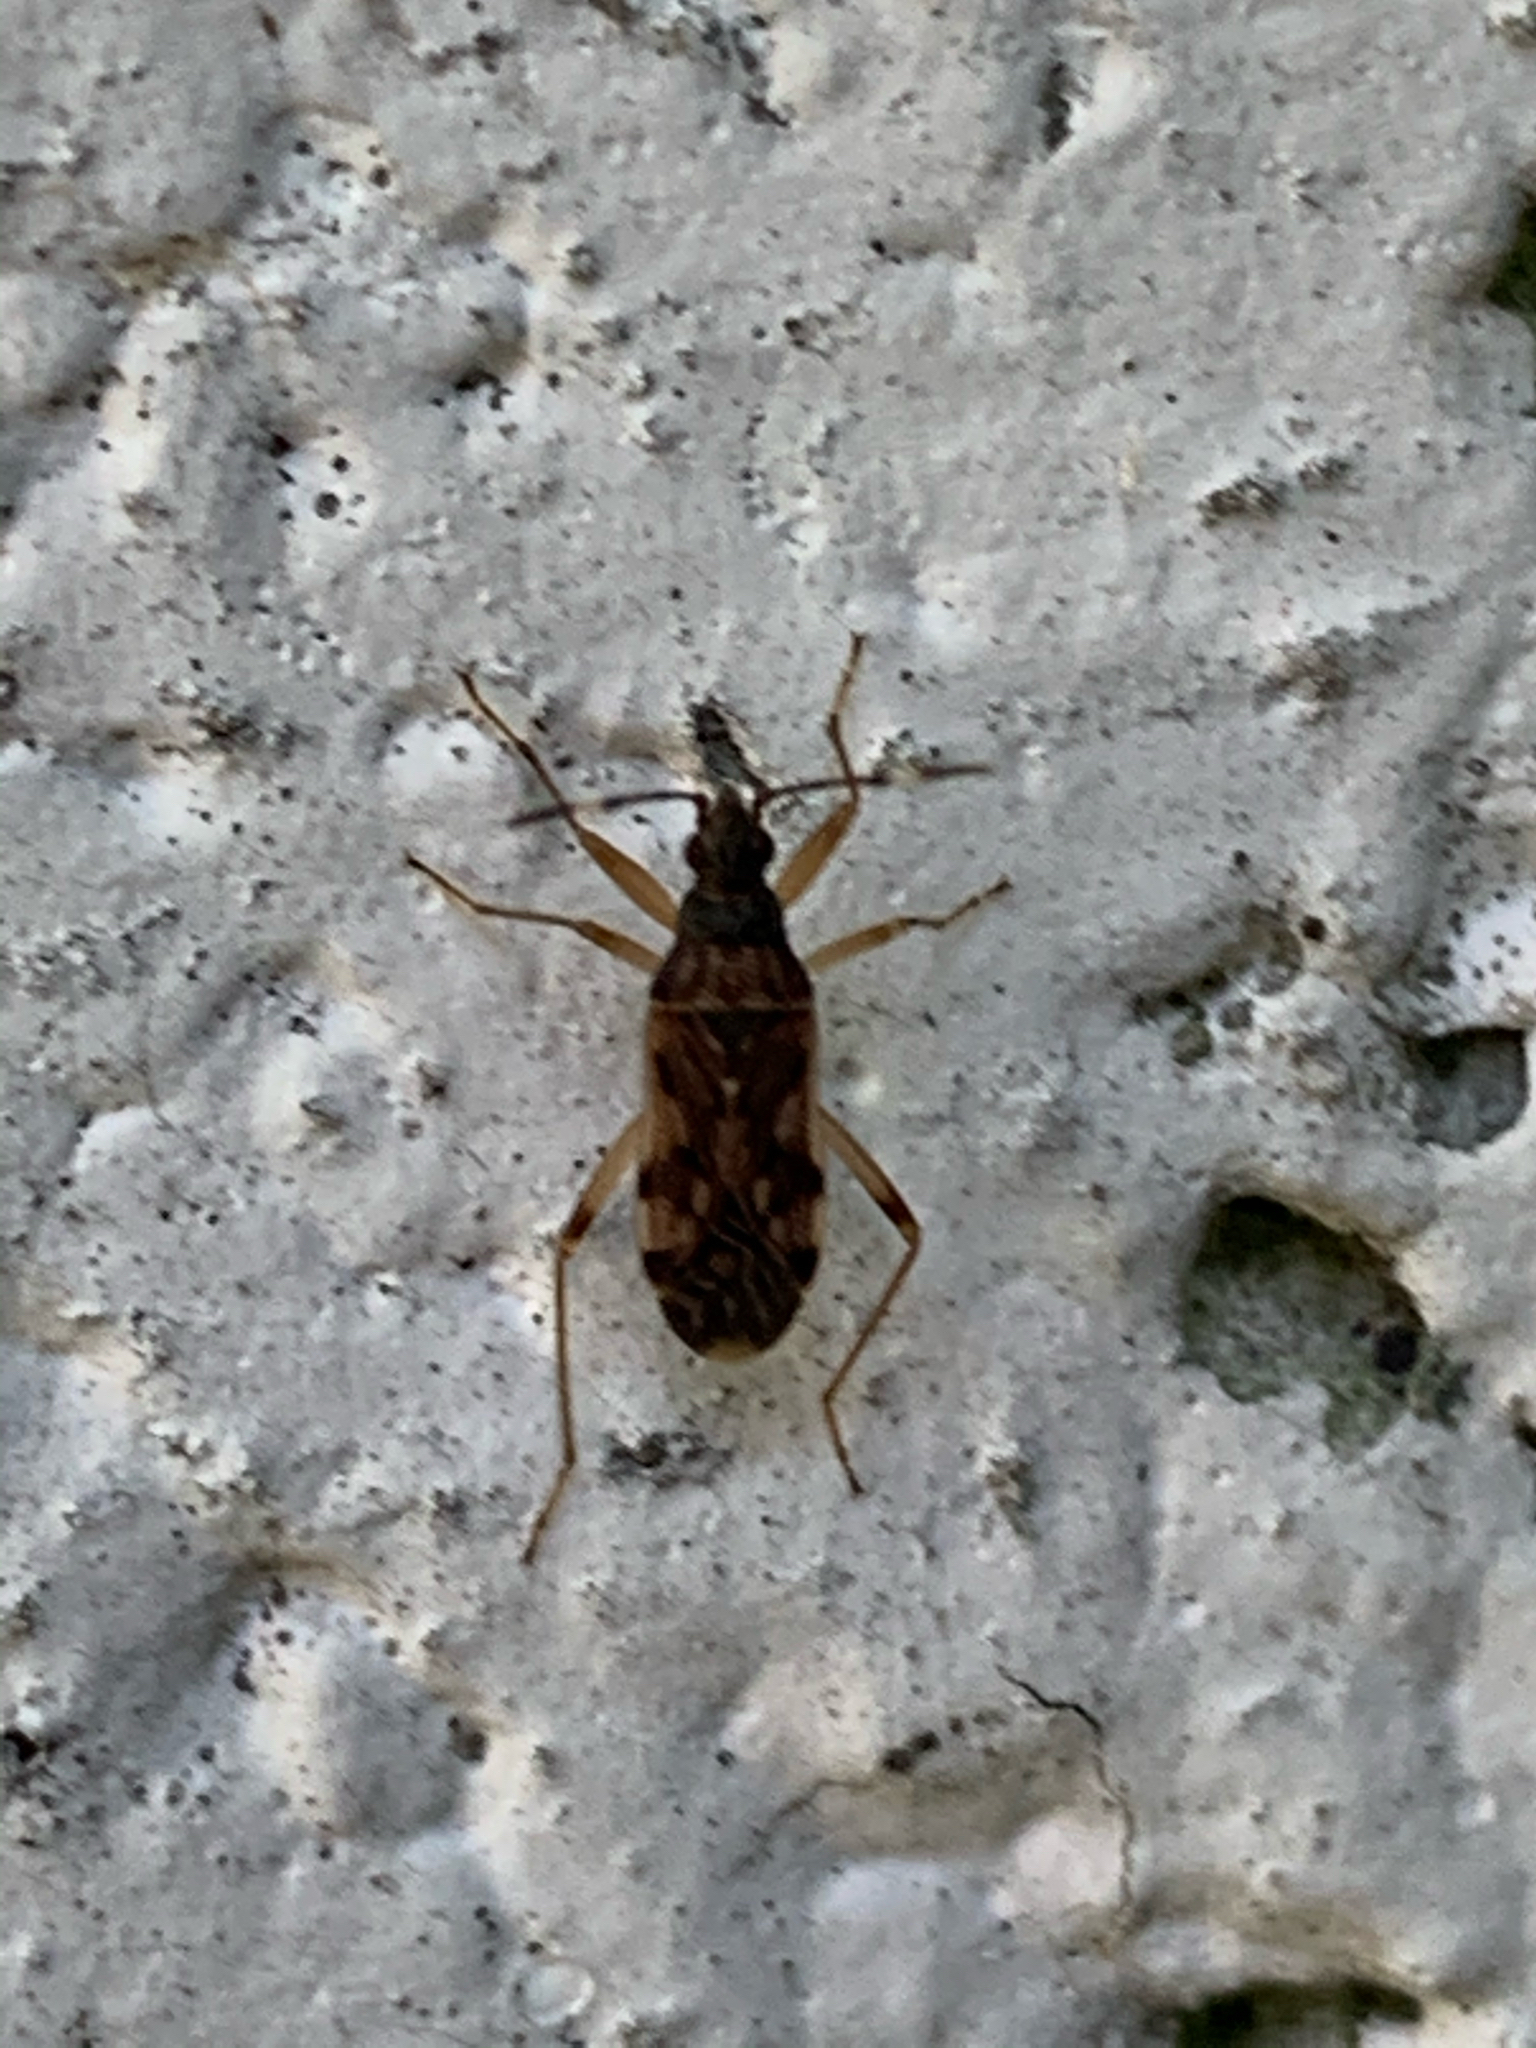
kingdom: Animalia
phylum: Arthropoda
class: Insecta
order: Hemiptera
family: Rhyparochromidae
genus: Ozophora
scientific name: Ozophora picturata
